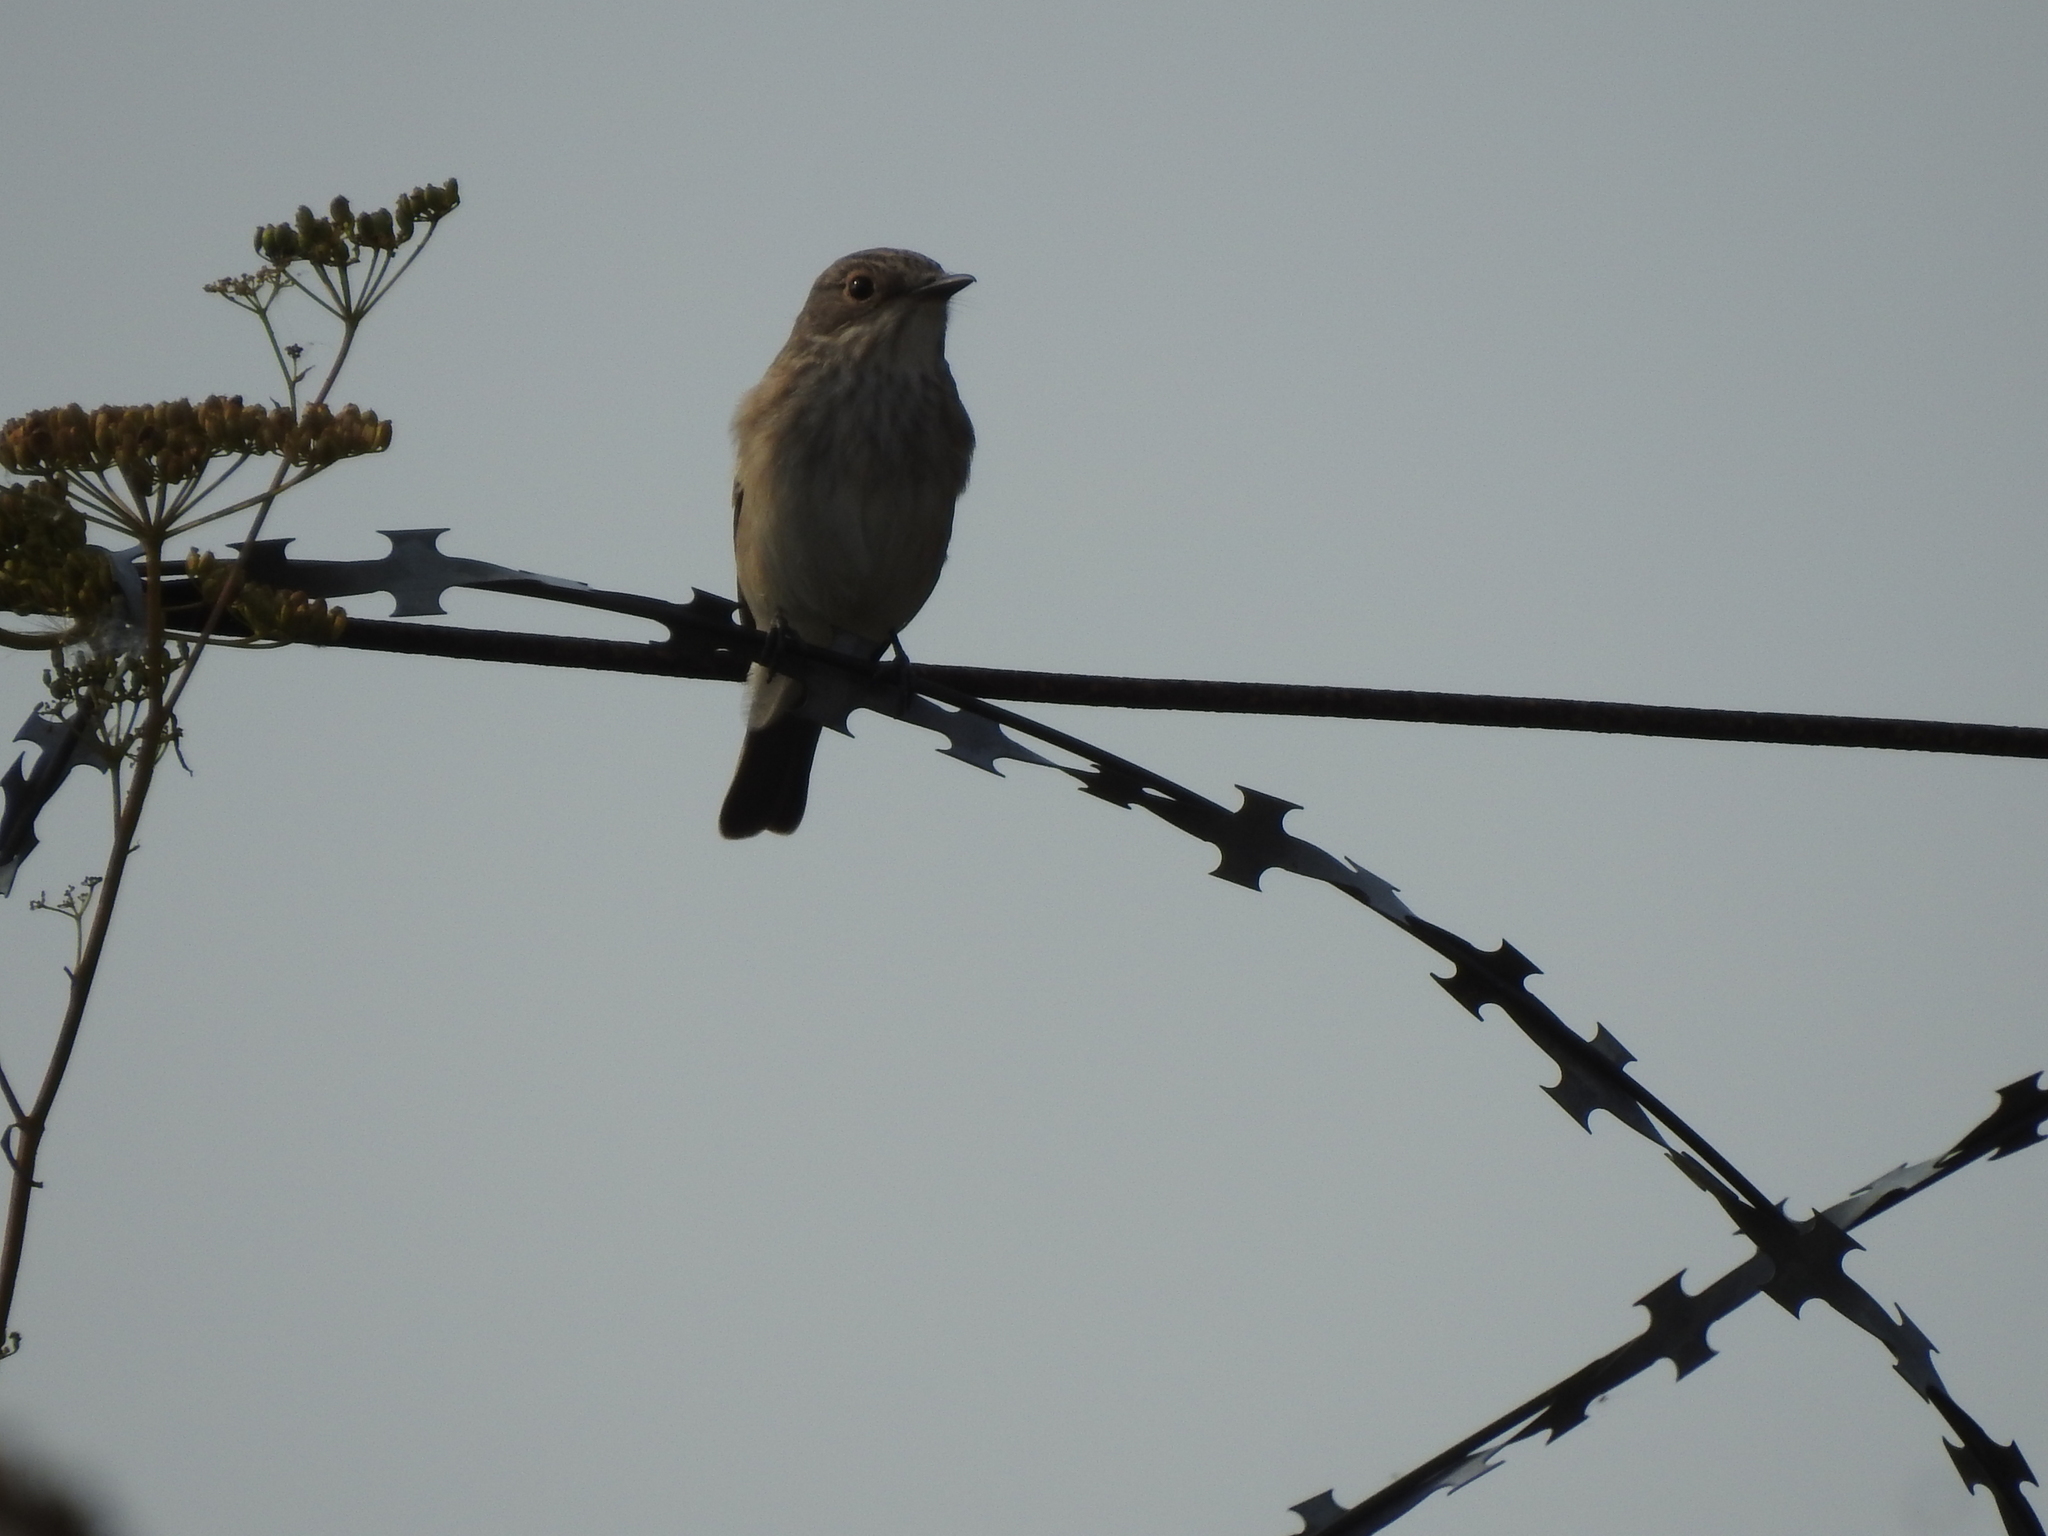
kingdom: Animalia
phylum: Chordata
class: Aves
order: Passeriformes
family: Muscicapidae
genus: Muscicapa
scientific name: Muscicapa striata
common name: Spotted flycatcher
